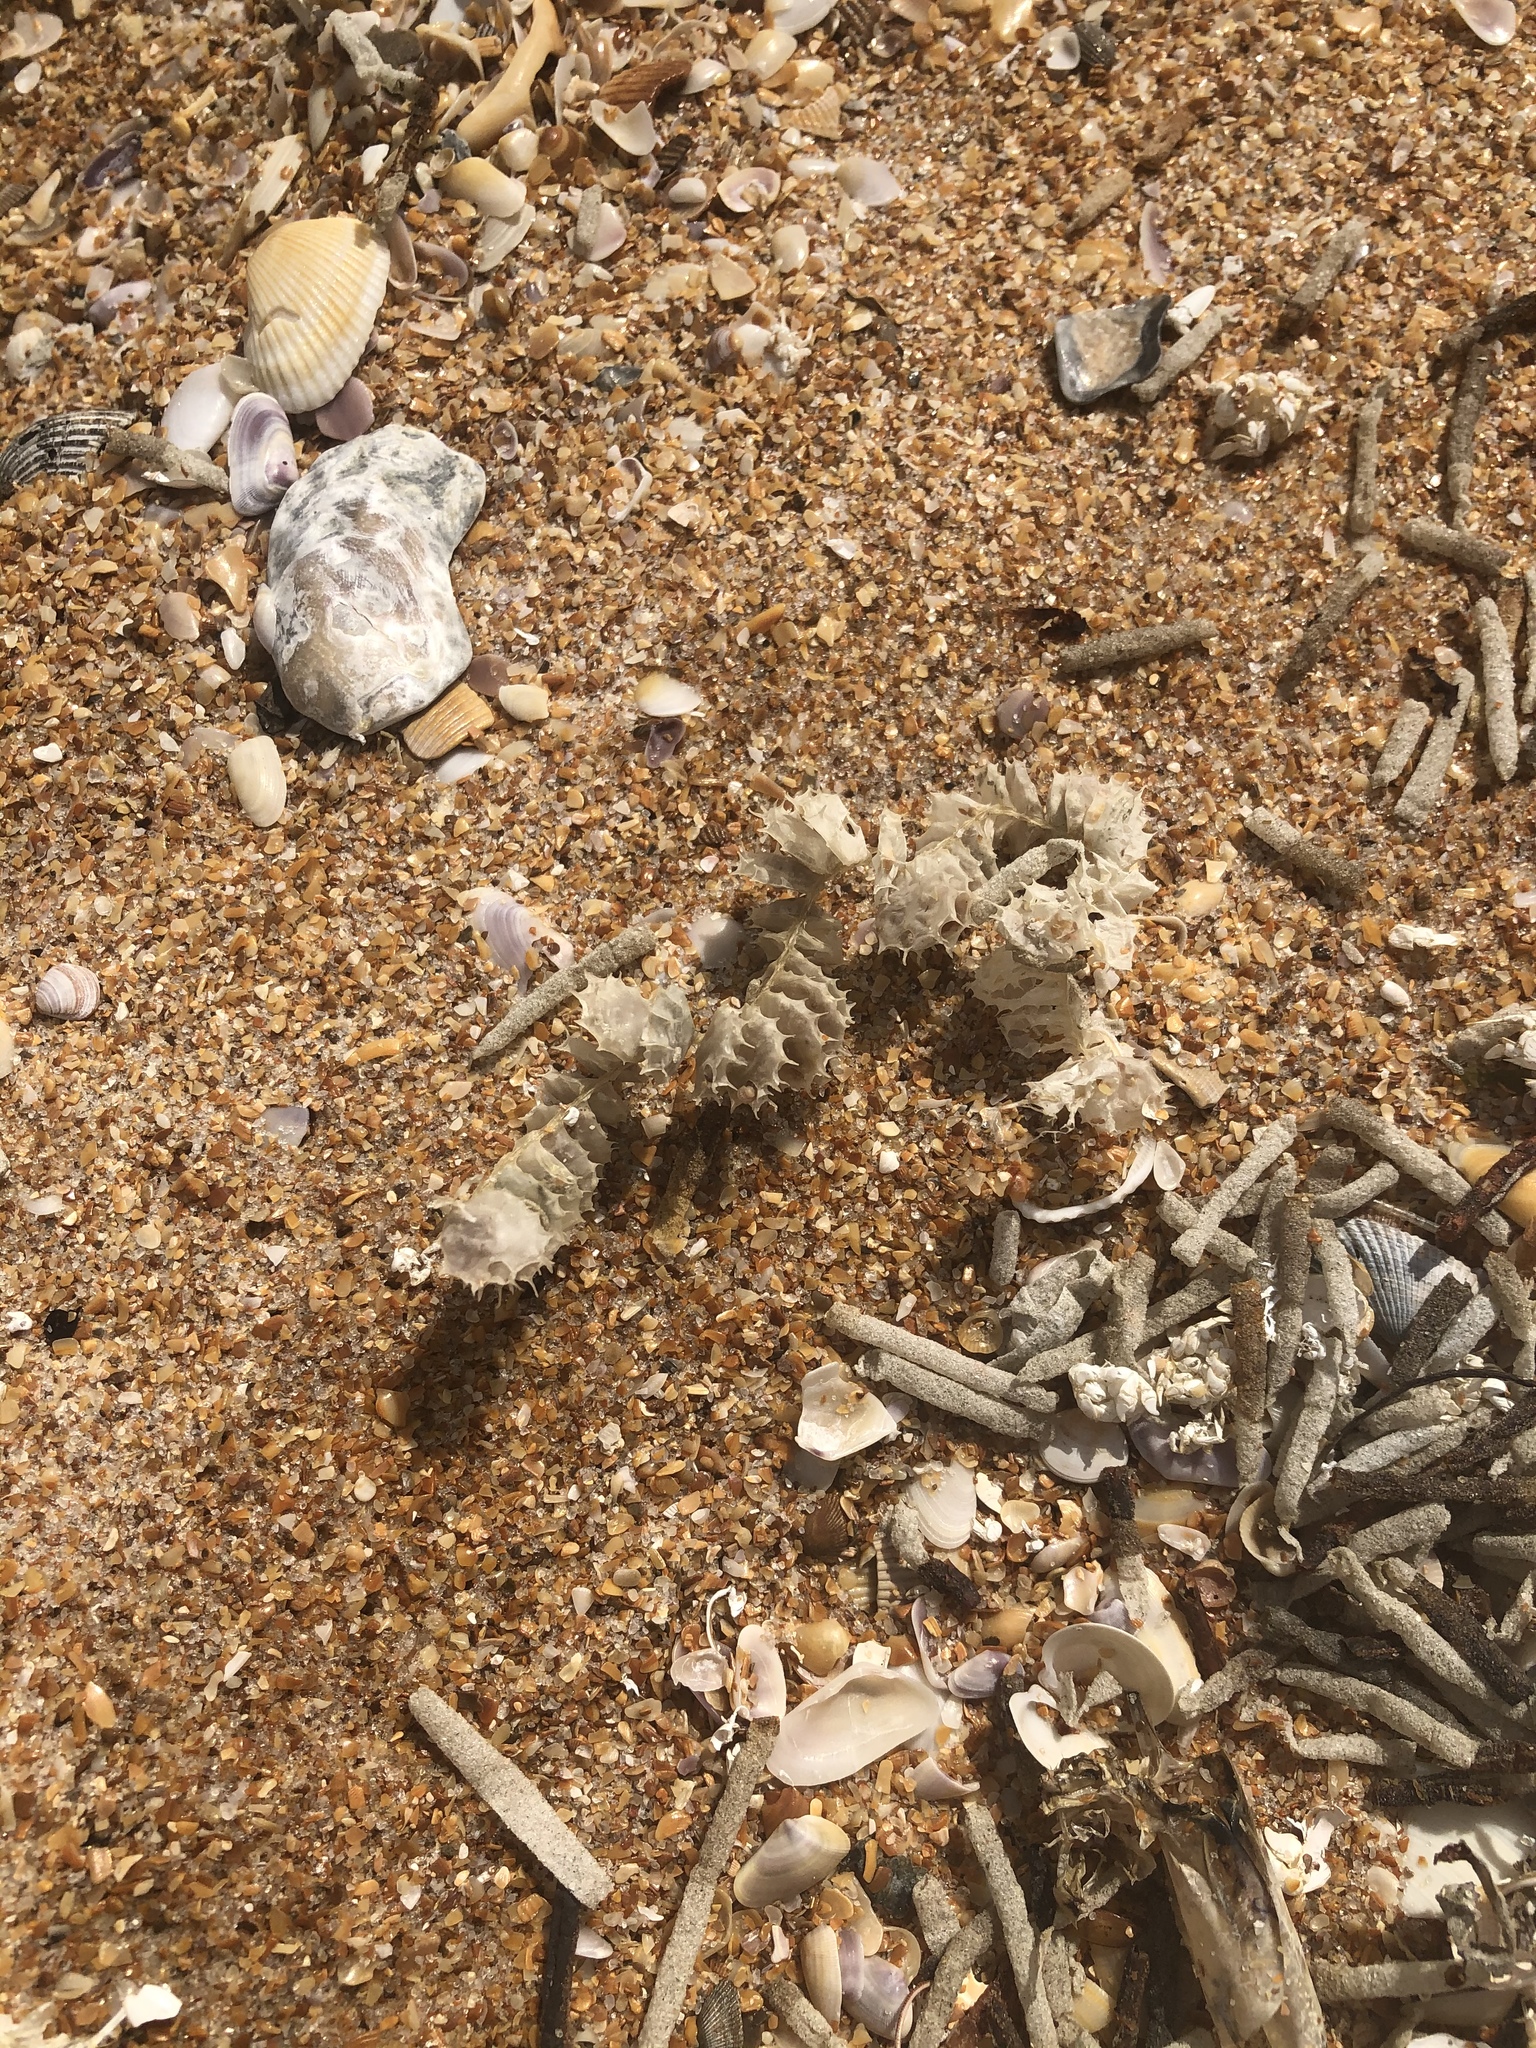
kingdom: Animalia
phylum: Mollusca
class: Gastropoda
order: Neogastropoda
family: Busyconidae
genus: Fulguropsis
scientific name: Fulguropsis pyruloides
